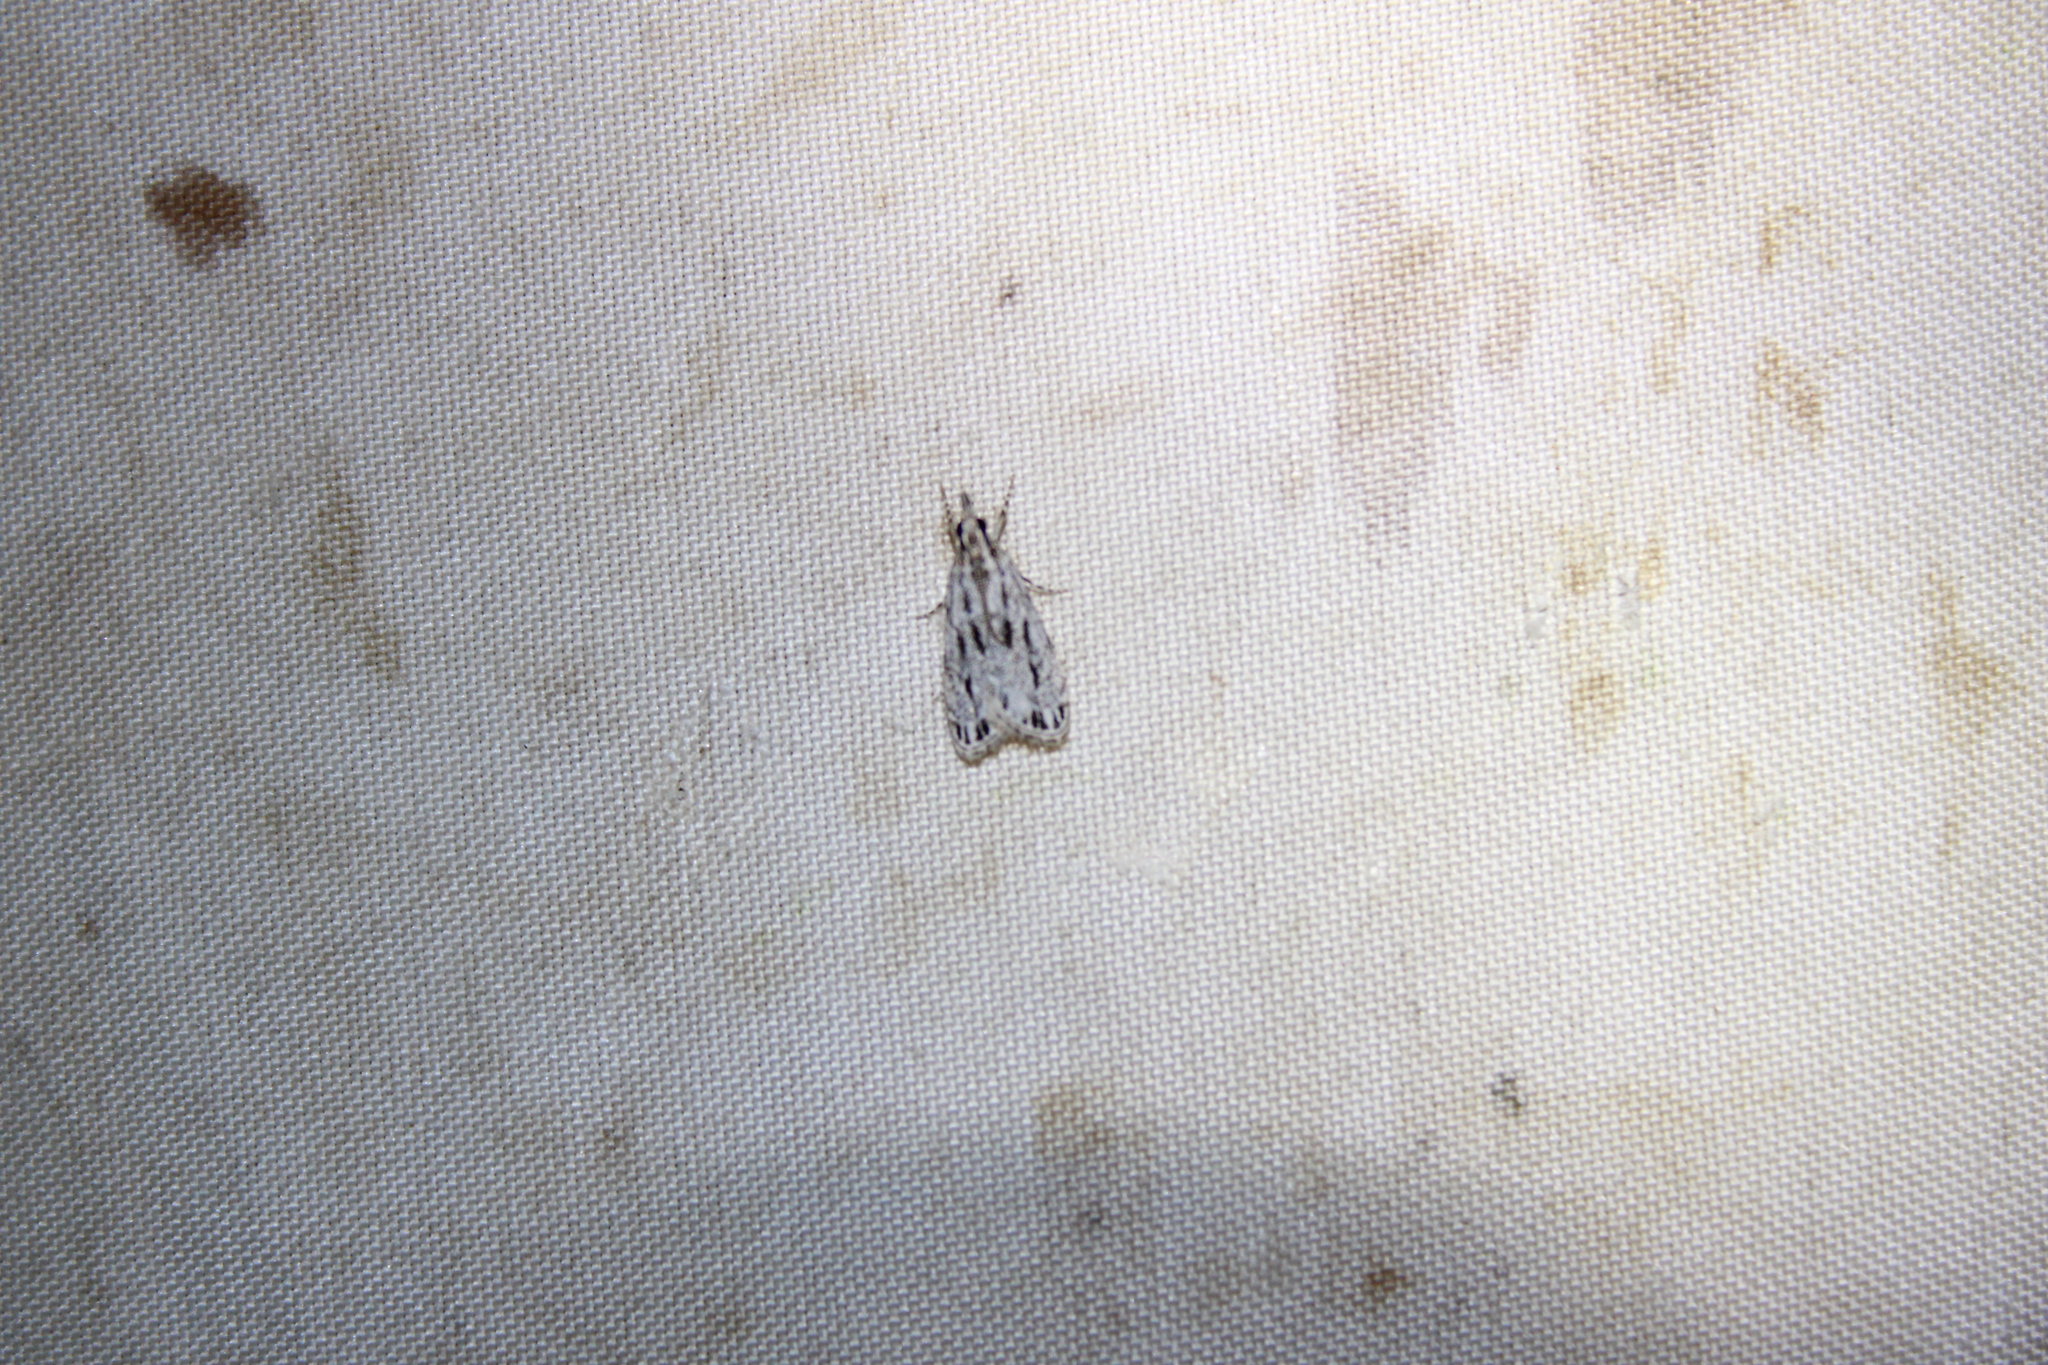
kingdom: Animalia
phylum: Arthropoda
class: Insecta
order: Lepidoptera
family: Crambidae
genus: Eudonia
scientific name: Eudonia strigalis
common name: Striped eudonia moth
